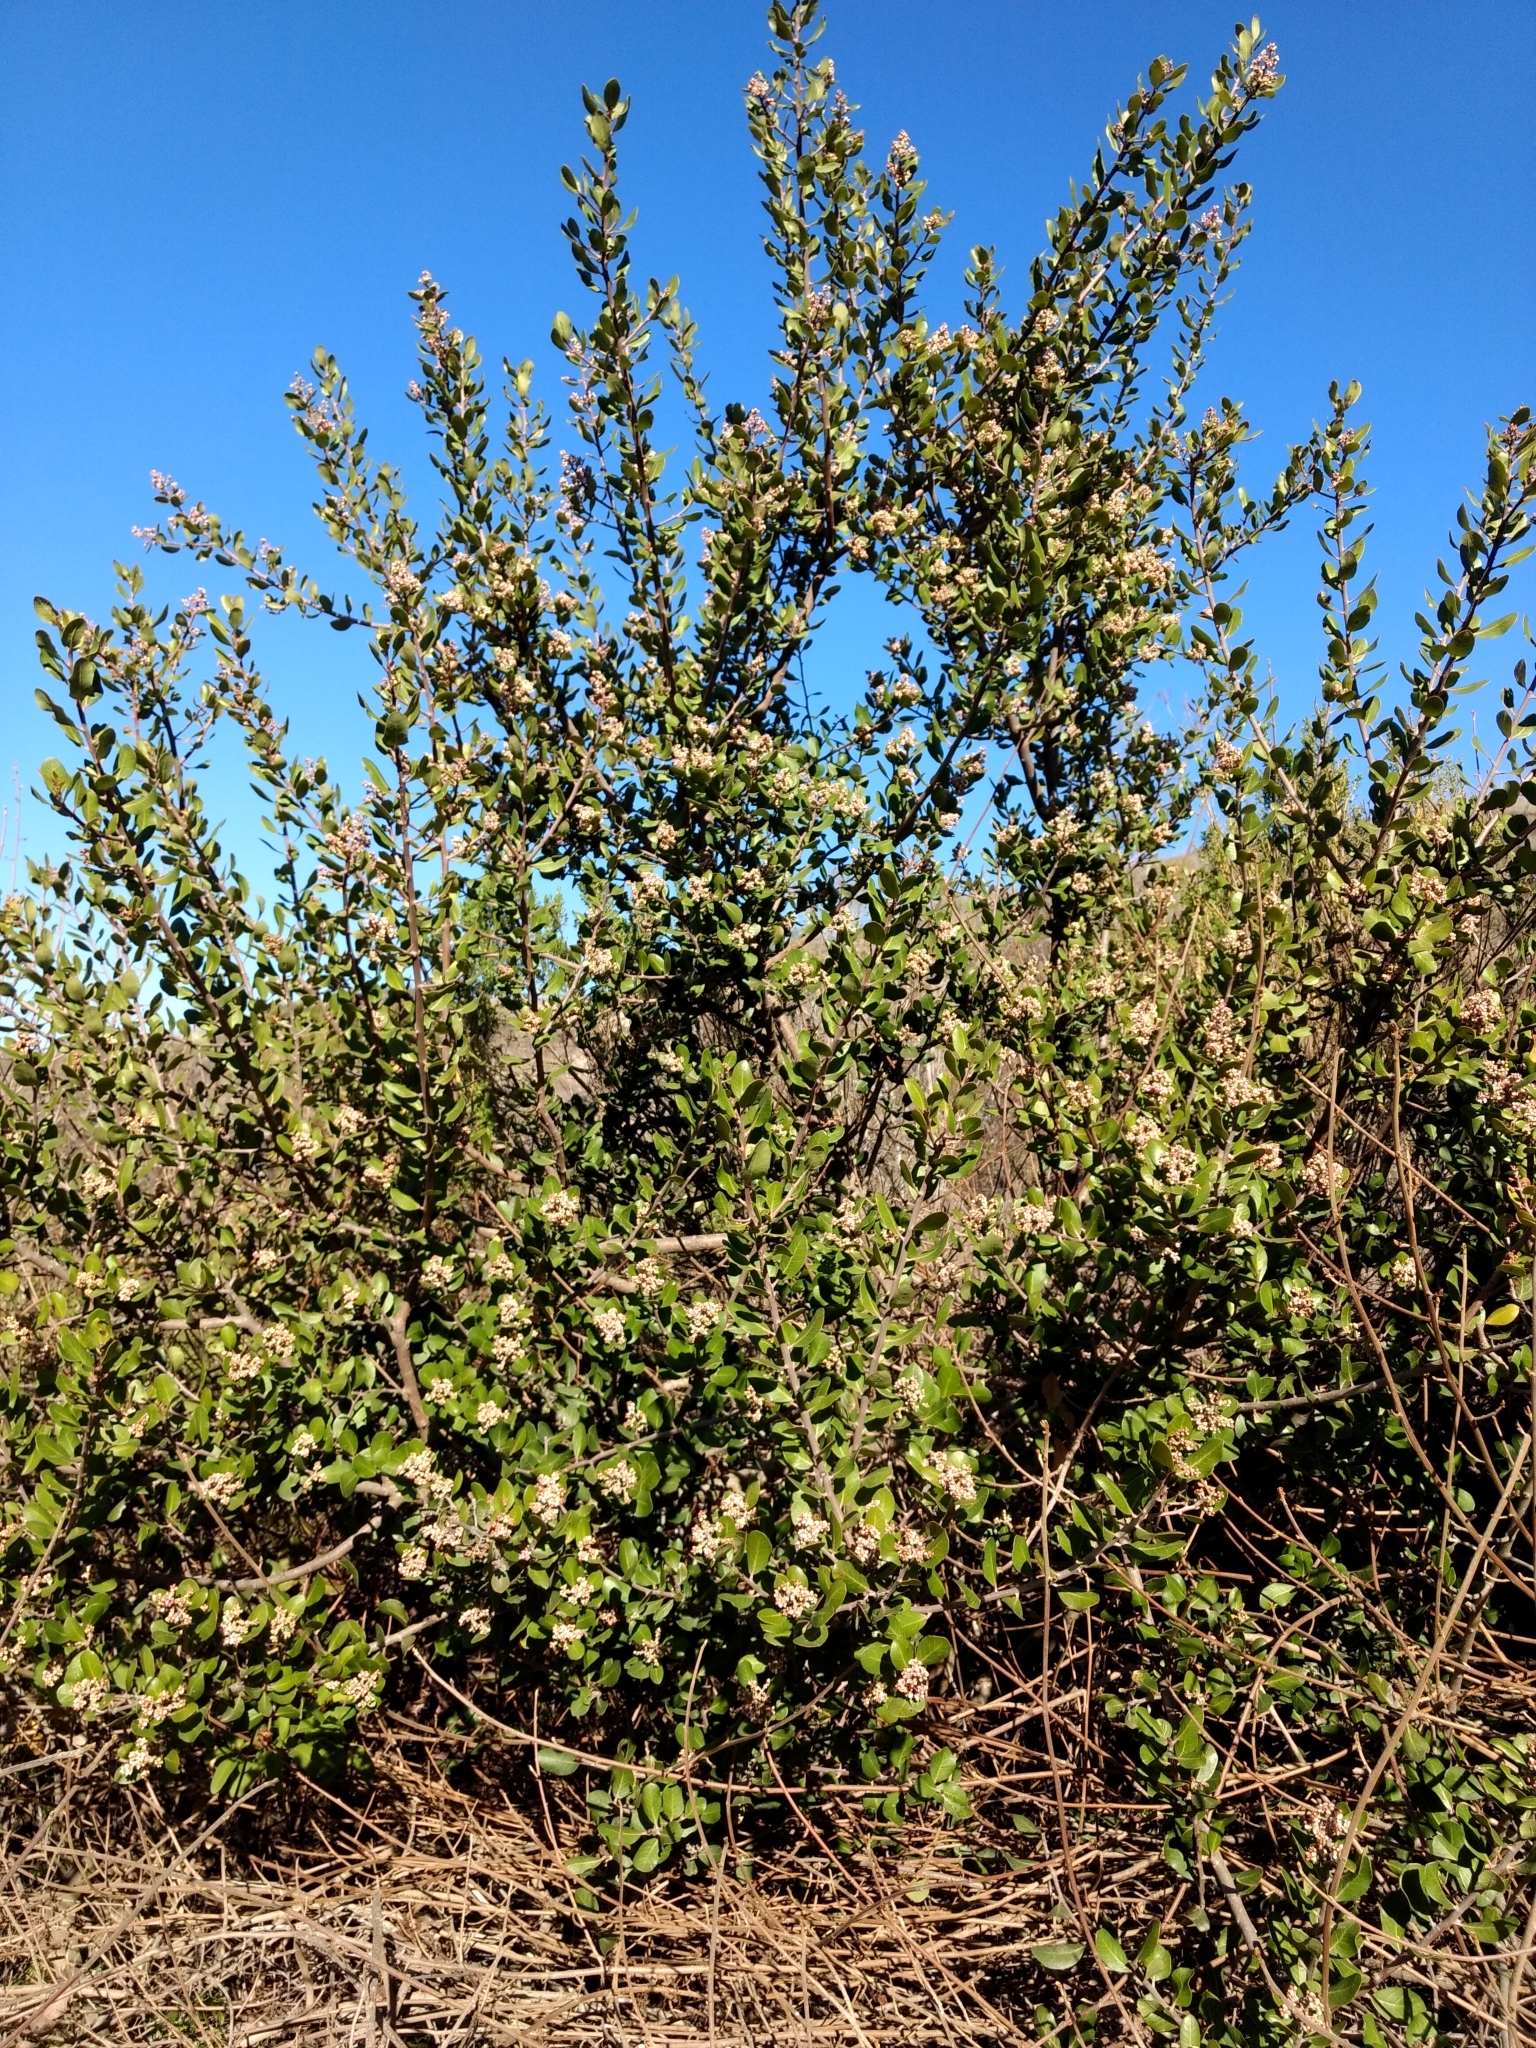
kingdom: Plantae
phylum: Tracheophyta
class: Magnoliopsida
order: Sapindales
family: Anacardiaceae
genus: Rhus
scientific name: Rhus integrifolia
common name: Lemonade sumac
